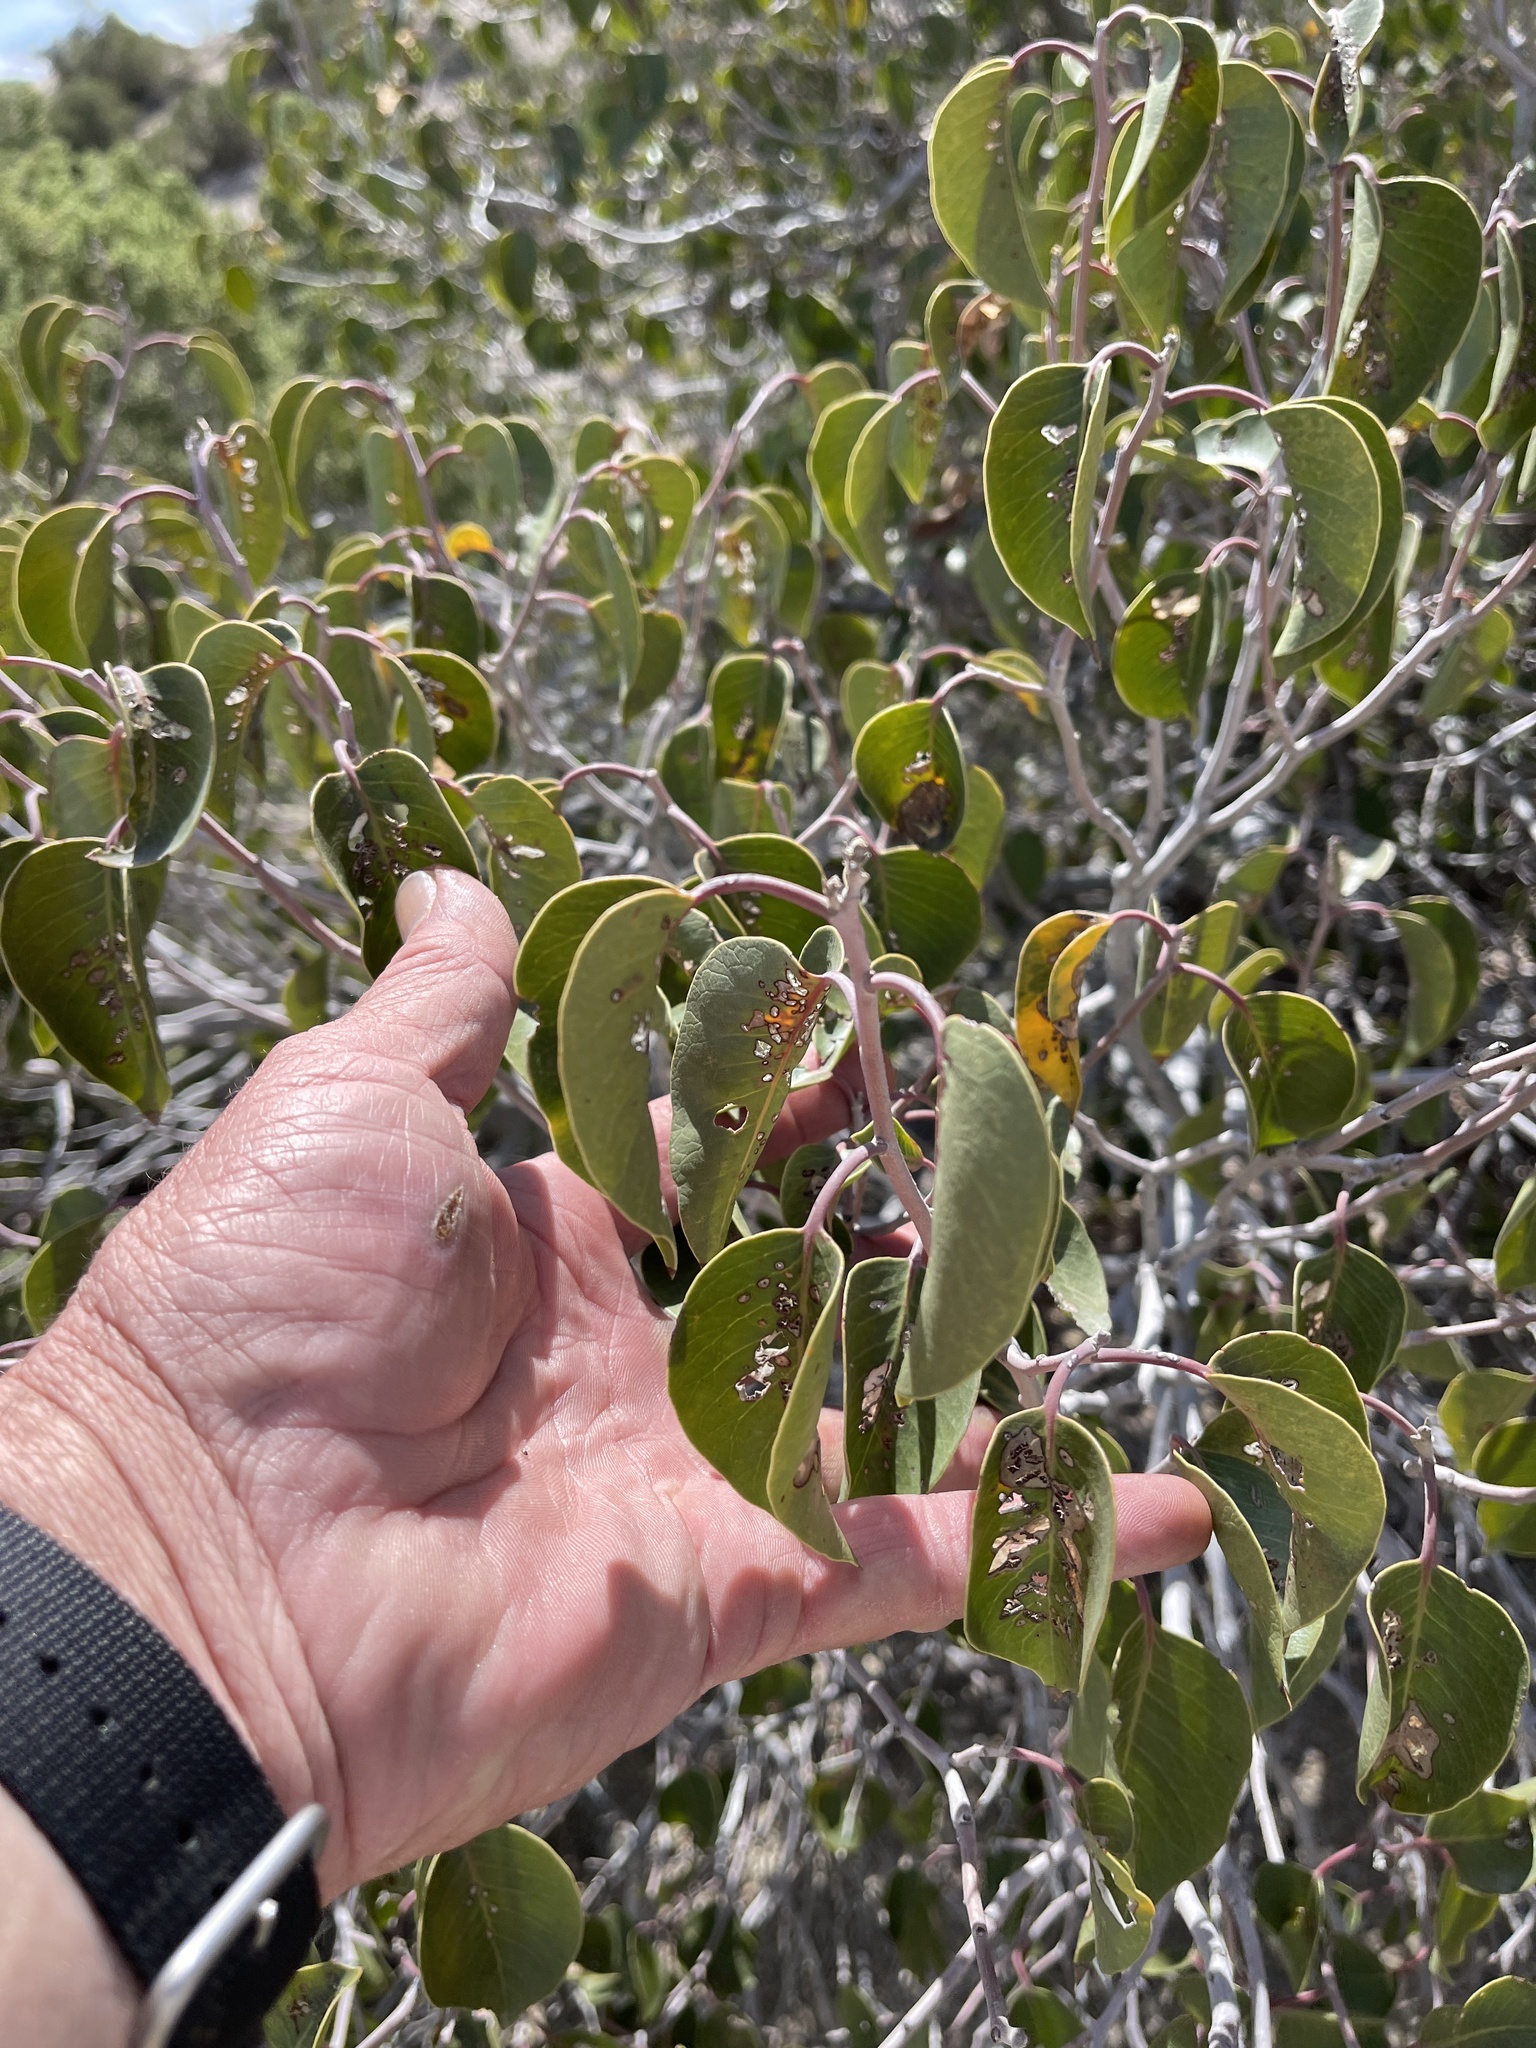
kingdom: Plantae
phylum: Tracheophyta
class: Magnoliopsida
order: Sapindales
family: Anacardiaceae
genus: Rhus
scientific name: Rhus ovata
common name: Sugar sumac
